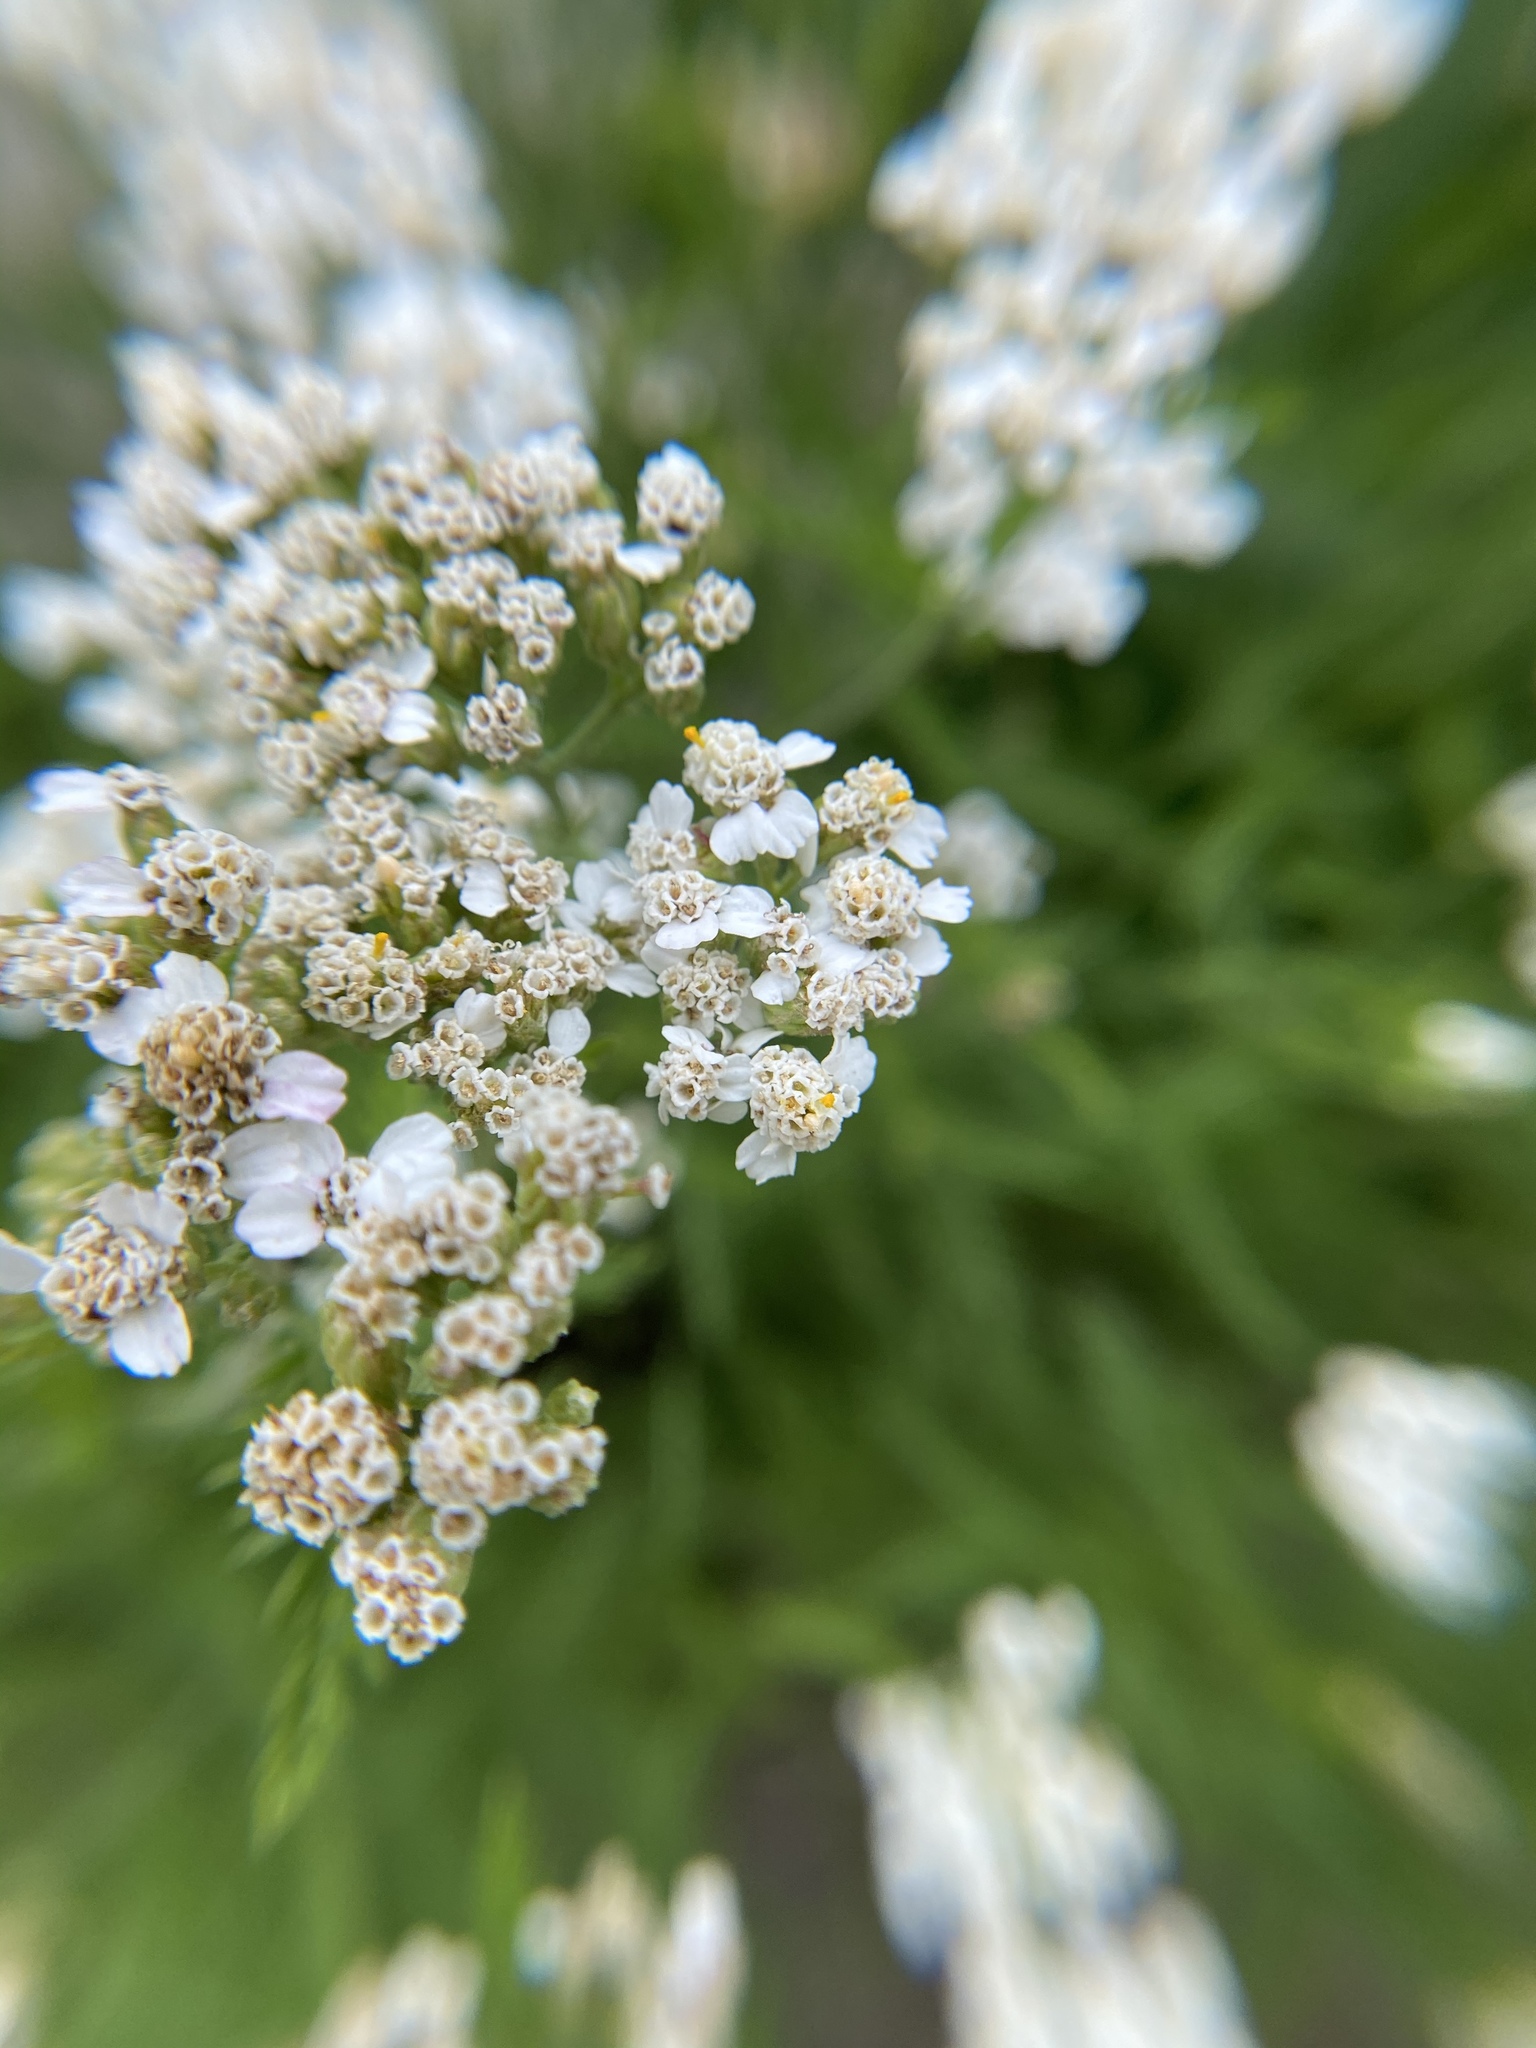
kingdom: Plantae
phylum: Tracheophyta
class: Magnoliopsida
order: Asterales
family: Asteraceae
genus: Achillea
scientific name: Achillea millefolium
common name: Yarrow
